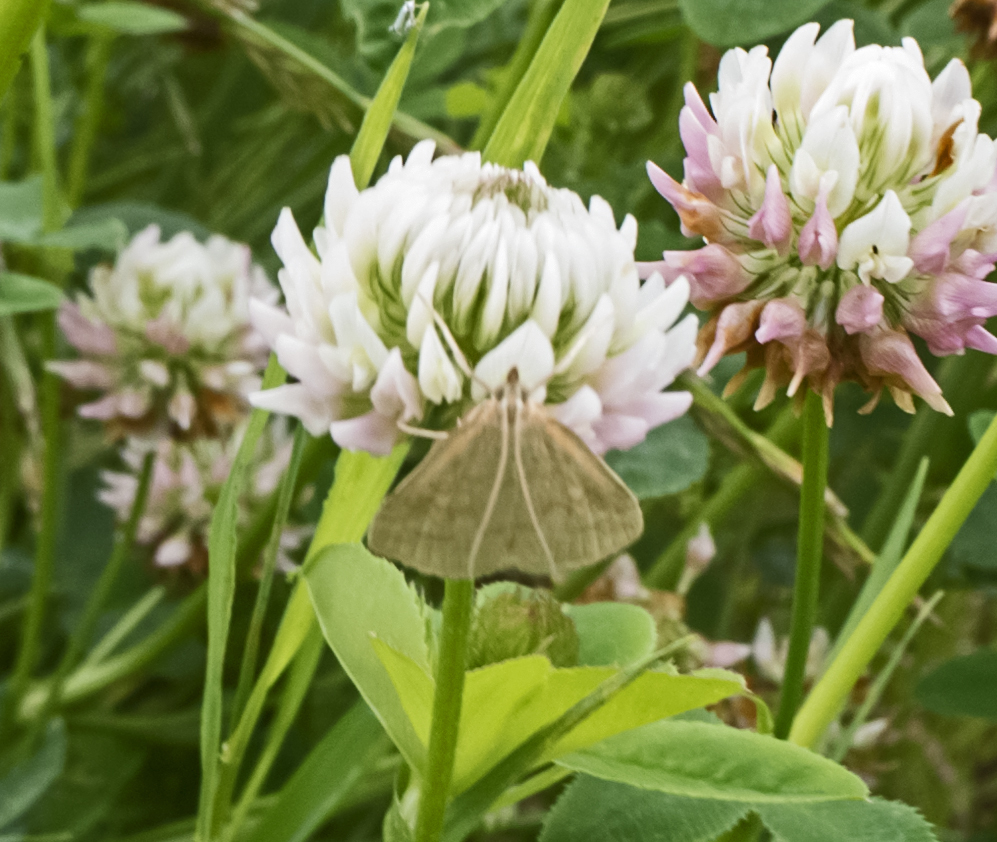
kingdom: Animalia
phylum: Arthropoda
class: Insecta
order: Lepidoptera
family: Crambidae
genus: Udea
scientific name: Udea lutealis
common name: Pale straw pearl
